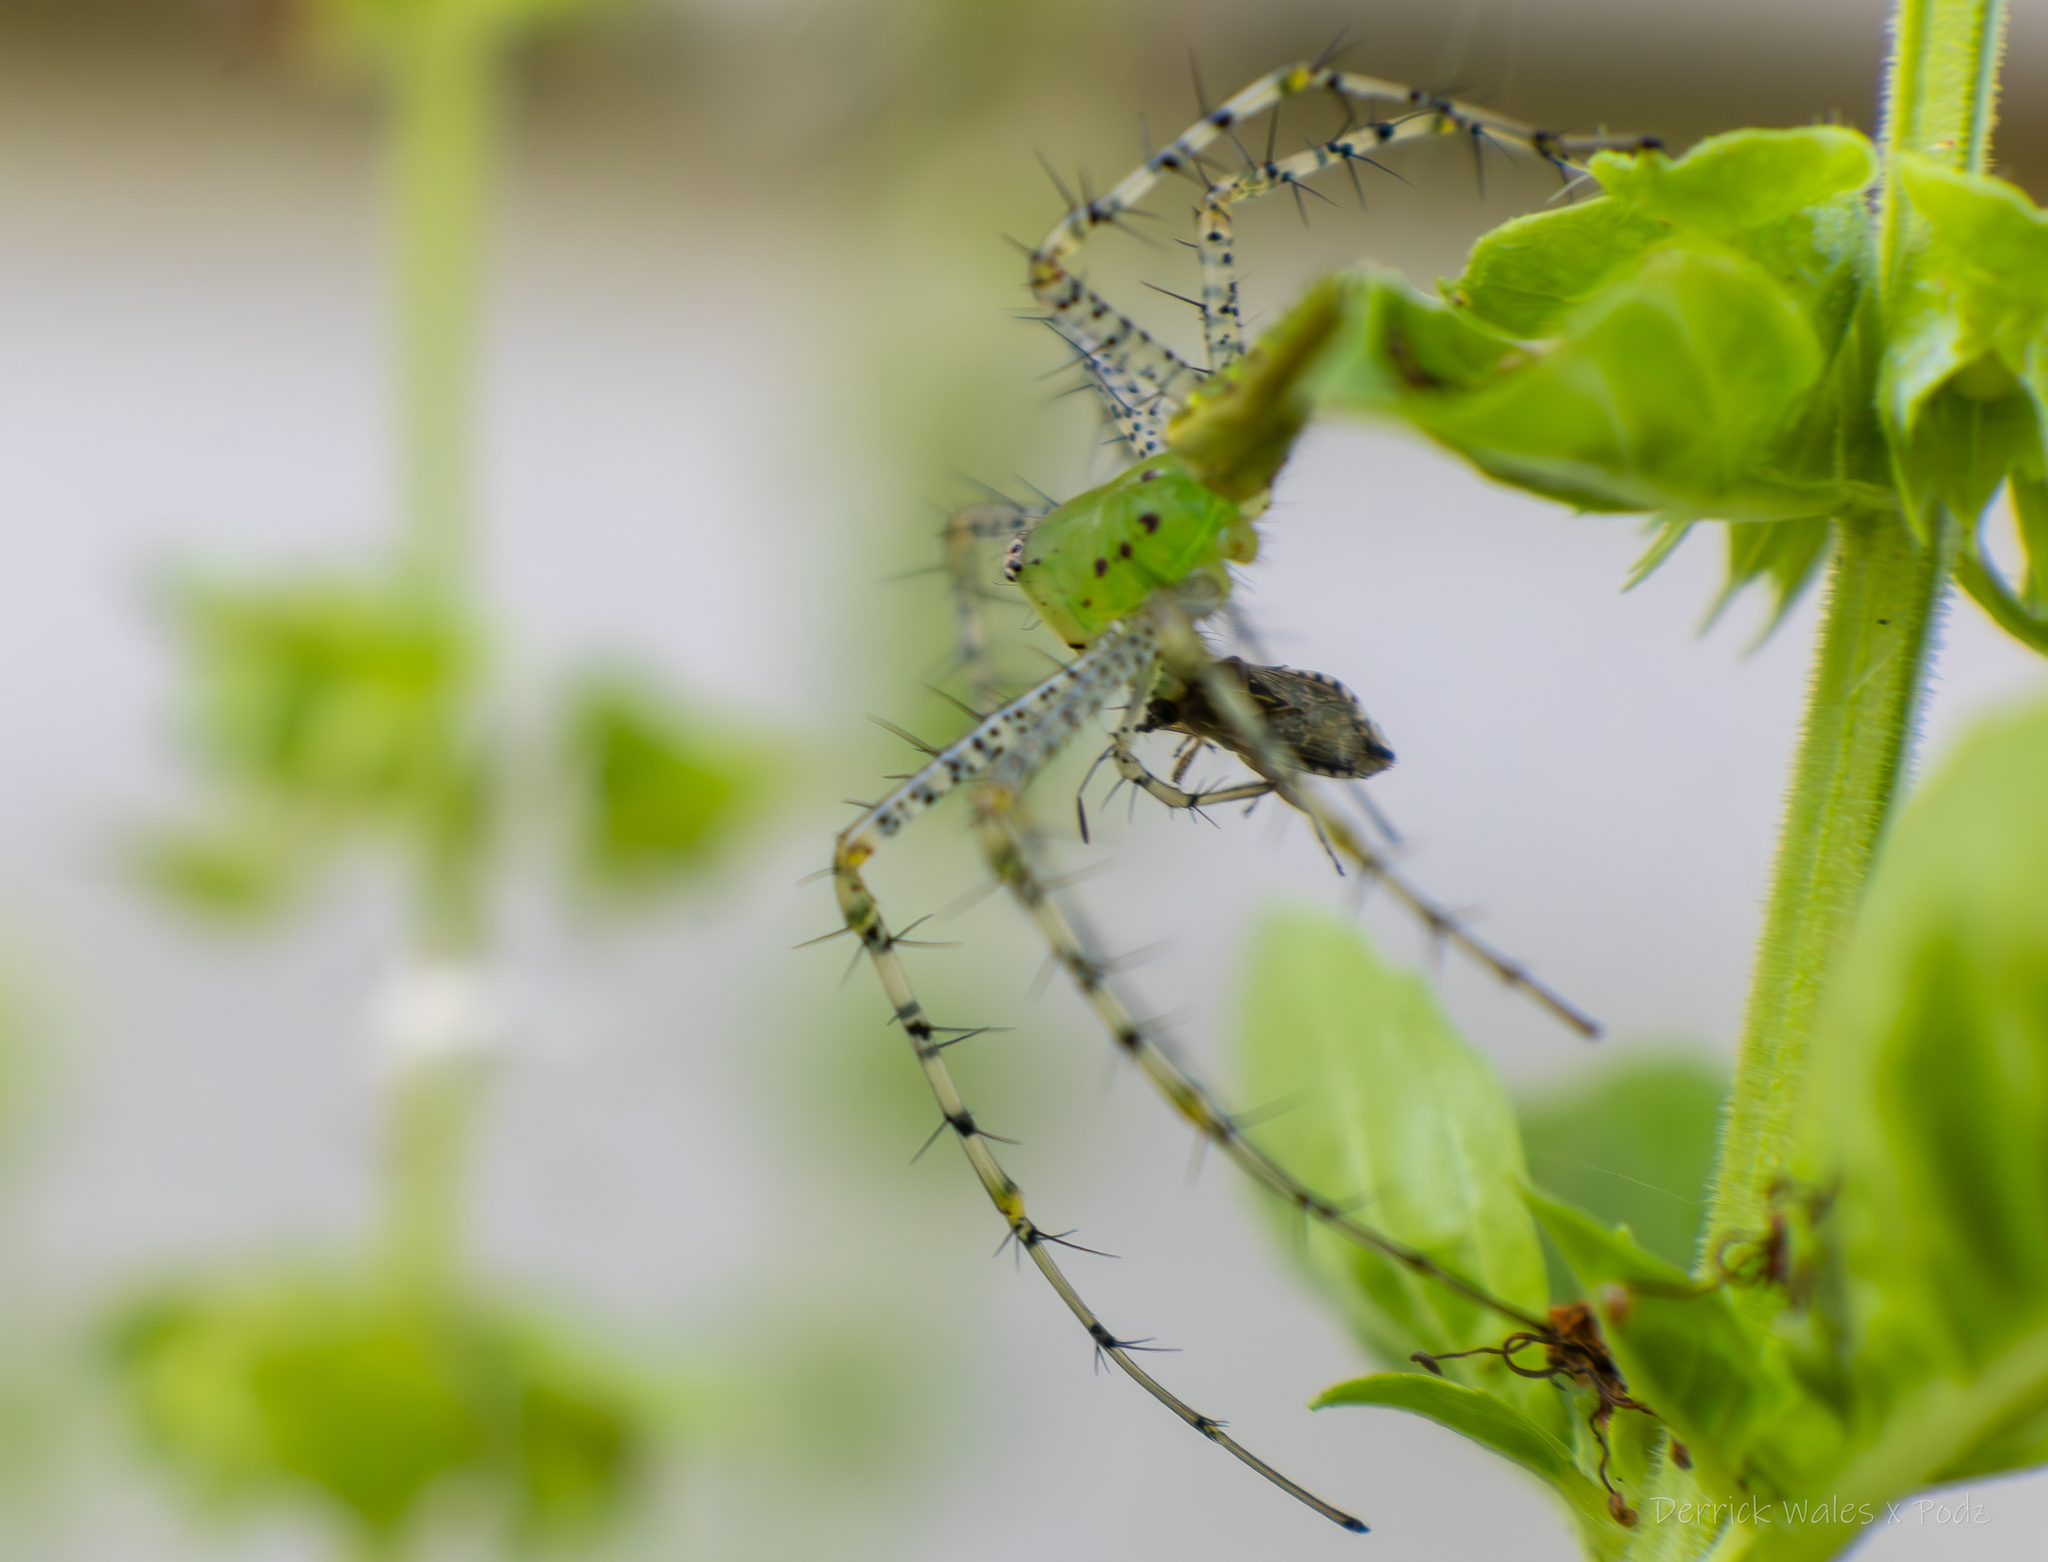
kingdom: Animalia
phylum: Arthropoda
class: Arachnida
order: Araneae
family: Oxyopidae
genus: Peucetia
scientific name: Peucetia viridans
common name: Lynx spiders
